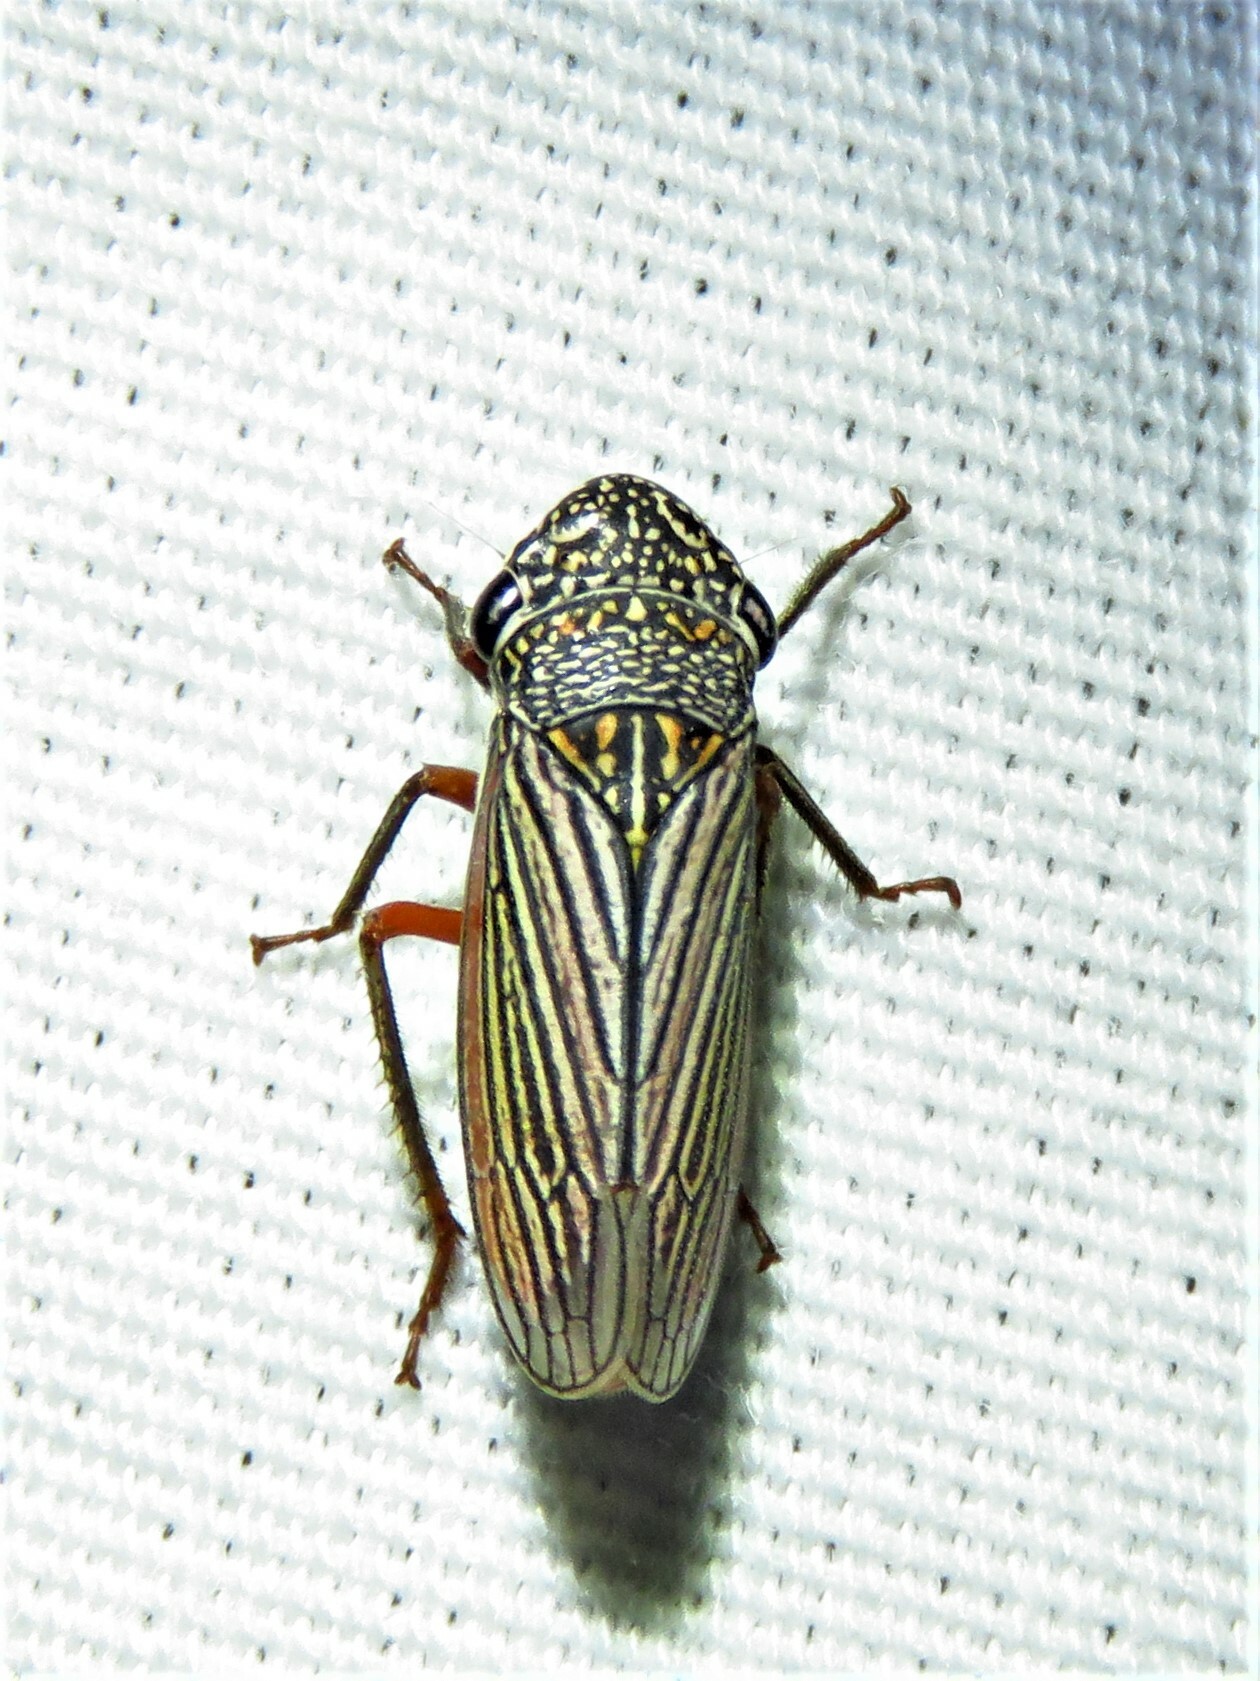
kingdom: Animalia
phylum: Arthropoda
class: Insecta
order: Hemiptera
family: Cicadellidae
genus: Cuerna
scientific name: Cuerna costalis
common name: Lateral-lined sharpshooter
